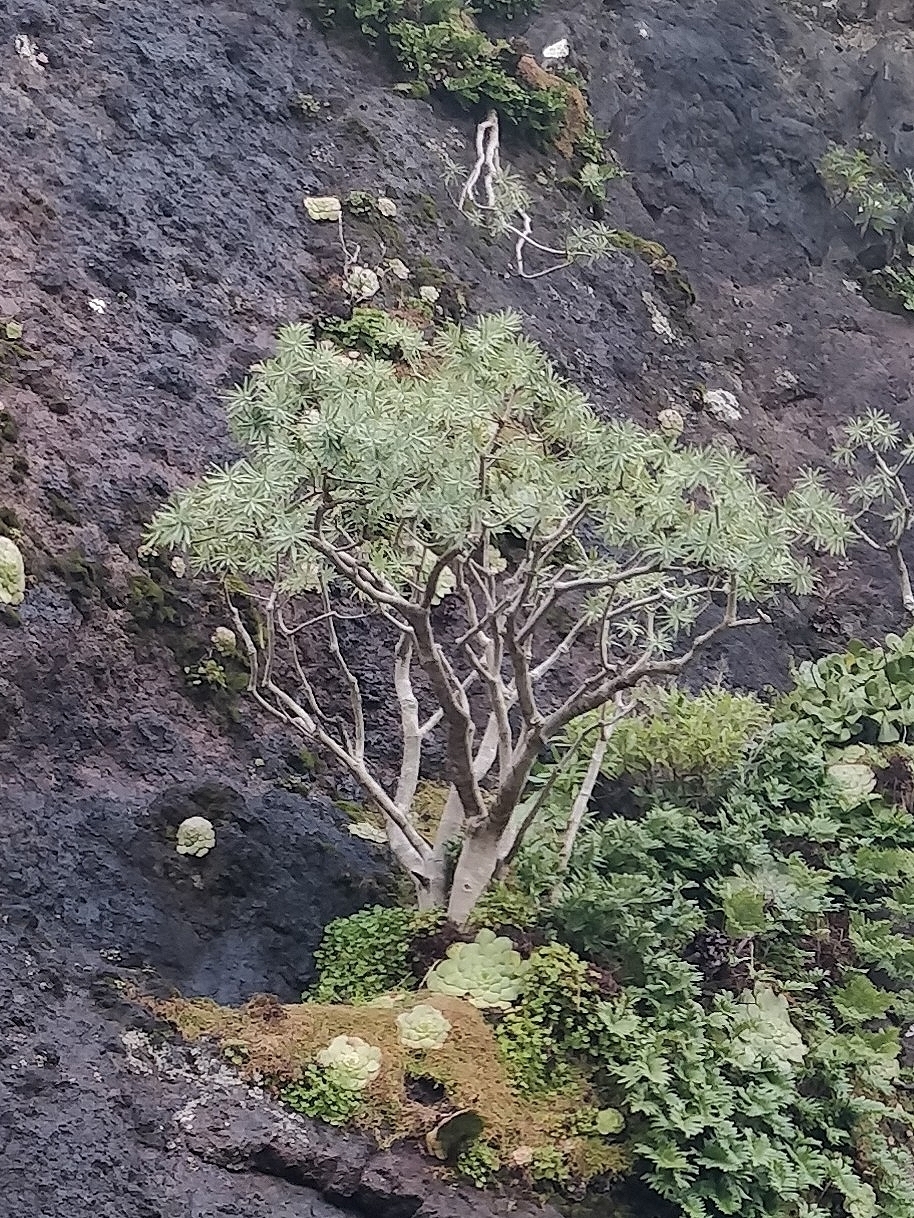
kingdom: Plantae
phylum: Tracheophyta
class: Magnoliopsida
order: Malpighiales
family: Euphorbiaceae
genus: Euphorbia
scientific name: Euphorbia piscatoria
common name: Fish-stunning spurge
